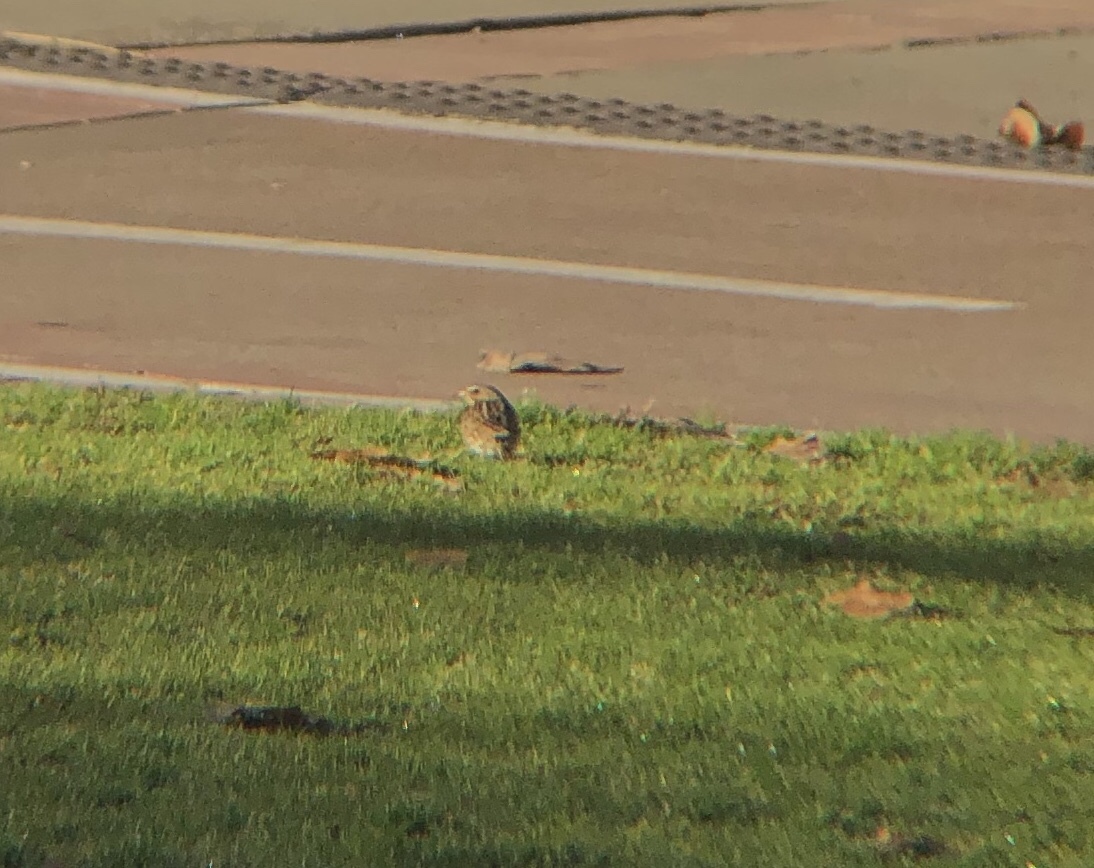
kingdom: Animalia
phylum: Chordata
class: Aves
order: Passeriformes
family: Passerellidae
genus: Passerculus
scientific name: Passerculus sandwichensis
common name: Savannah sparrow
